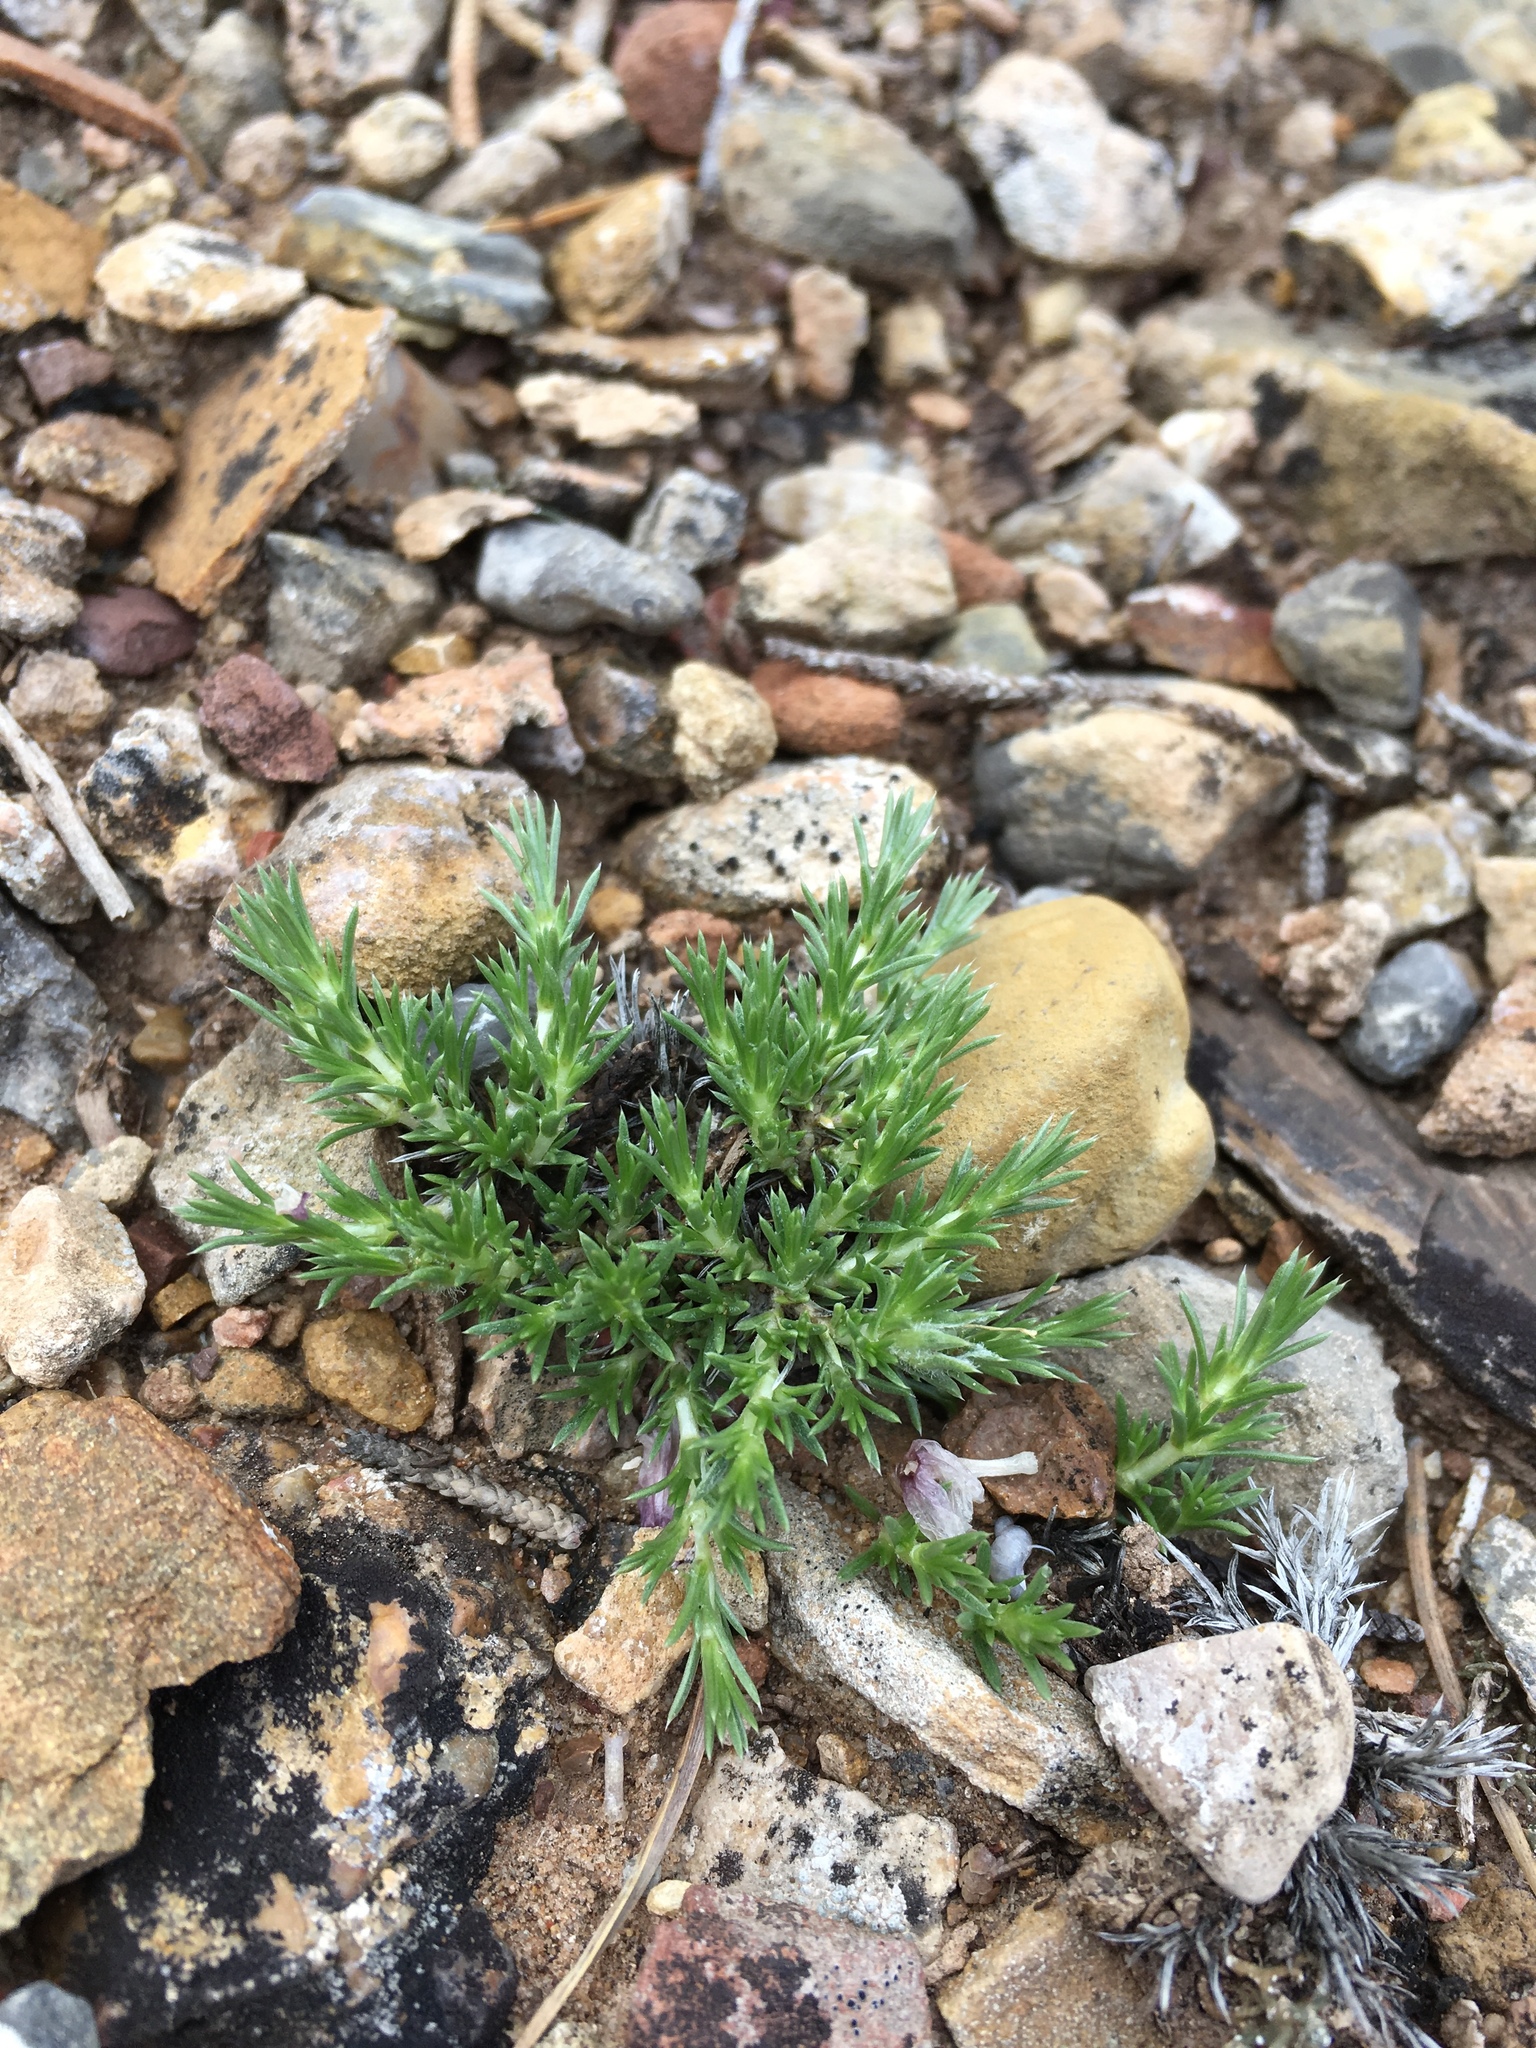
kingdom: Plantae
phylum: Tracheophyta
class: Magnoliopsida
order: Ericales
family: Polemoniaceae
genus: Phlox
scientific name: Phlox hoodii
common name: Moss phlox
